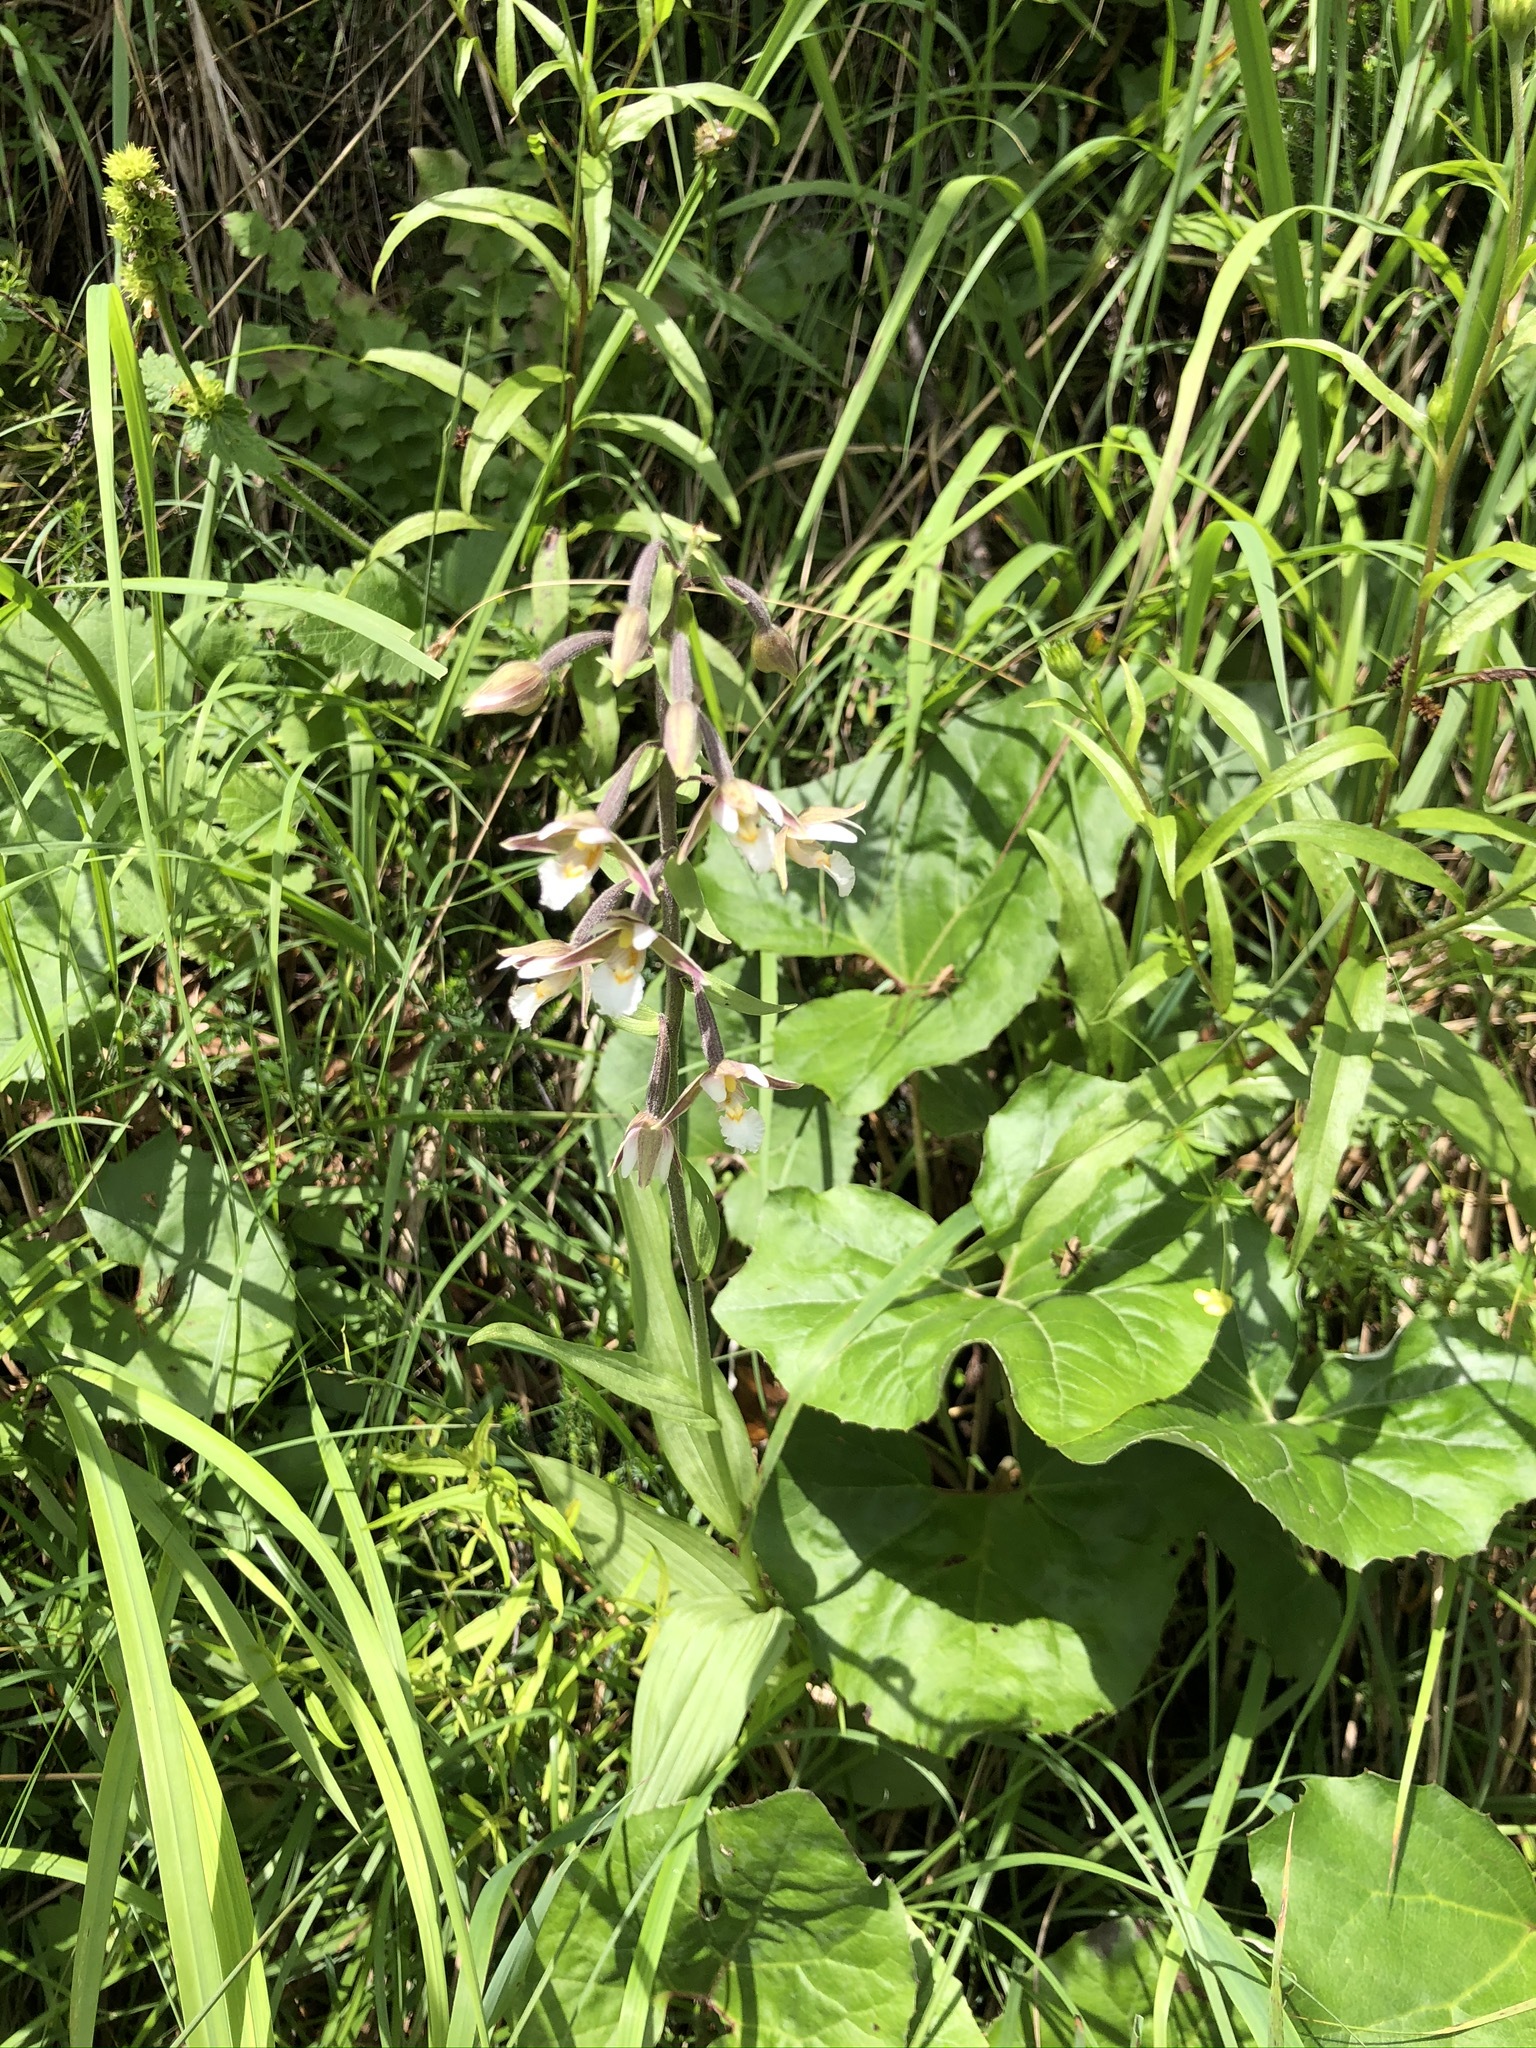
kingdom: Plantae
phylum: Tracheophyta
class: Liliopsida
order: Asparagales
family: Orchidaceae
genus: Epipactis
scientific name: Epipactis palustris
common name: Marsh helleborine
